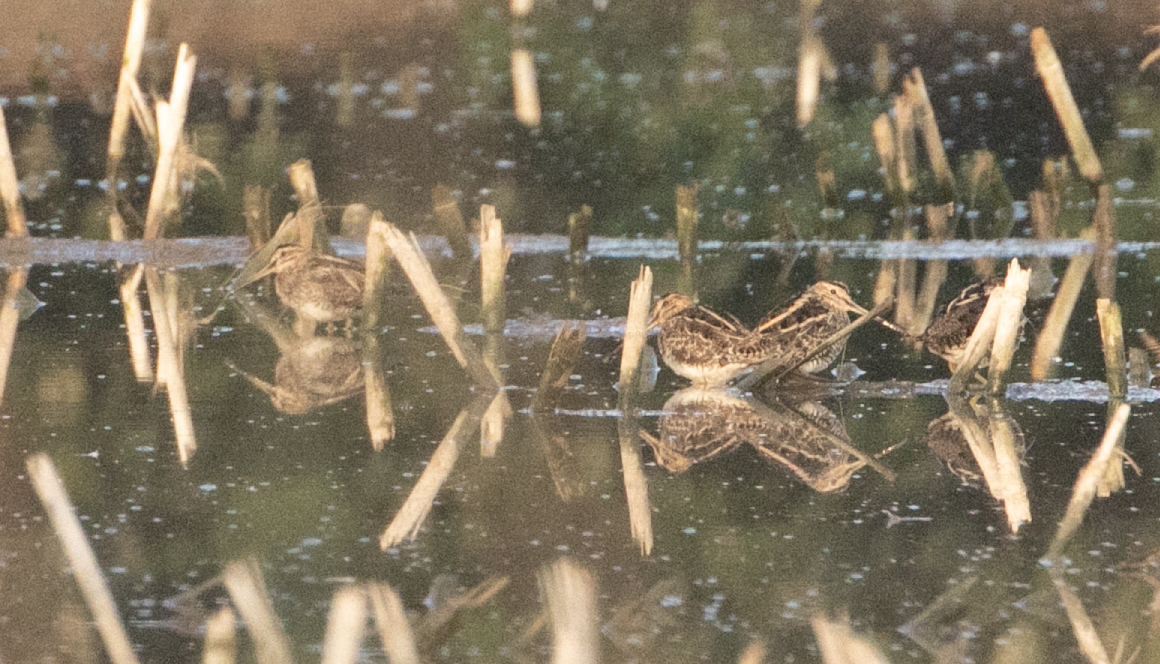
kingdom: Animalia
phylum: Chordata
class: Aves
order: Charadriiformes
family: Scolopacidae
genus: Gallinago
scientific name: Gallinago gallinago
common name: Common snipe
